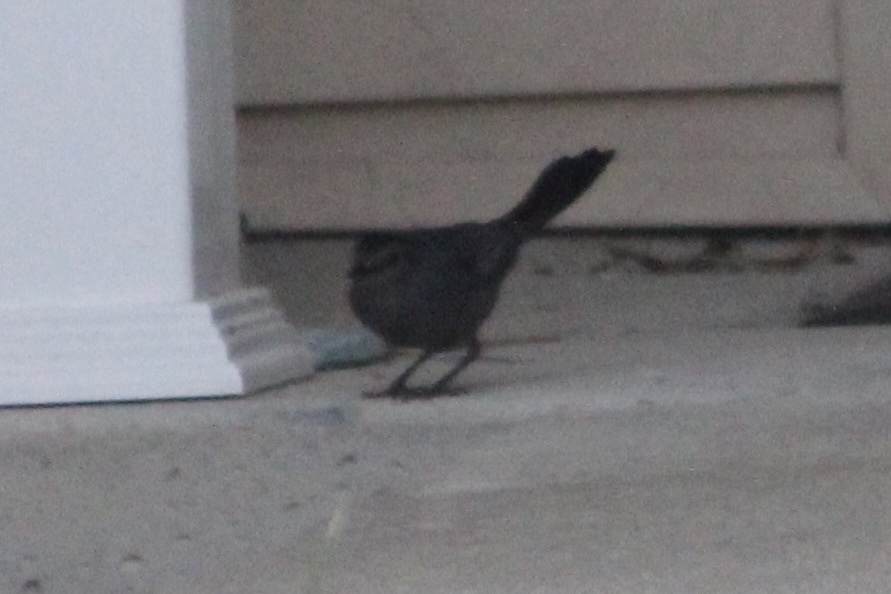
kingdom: Animalia
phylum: Chordata
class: Aves
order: Passeriformes
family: Mimidae
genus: Dumetella
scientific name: Dumetella carolinensis
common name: Gray catbird
